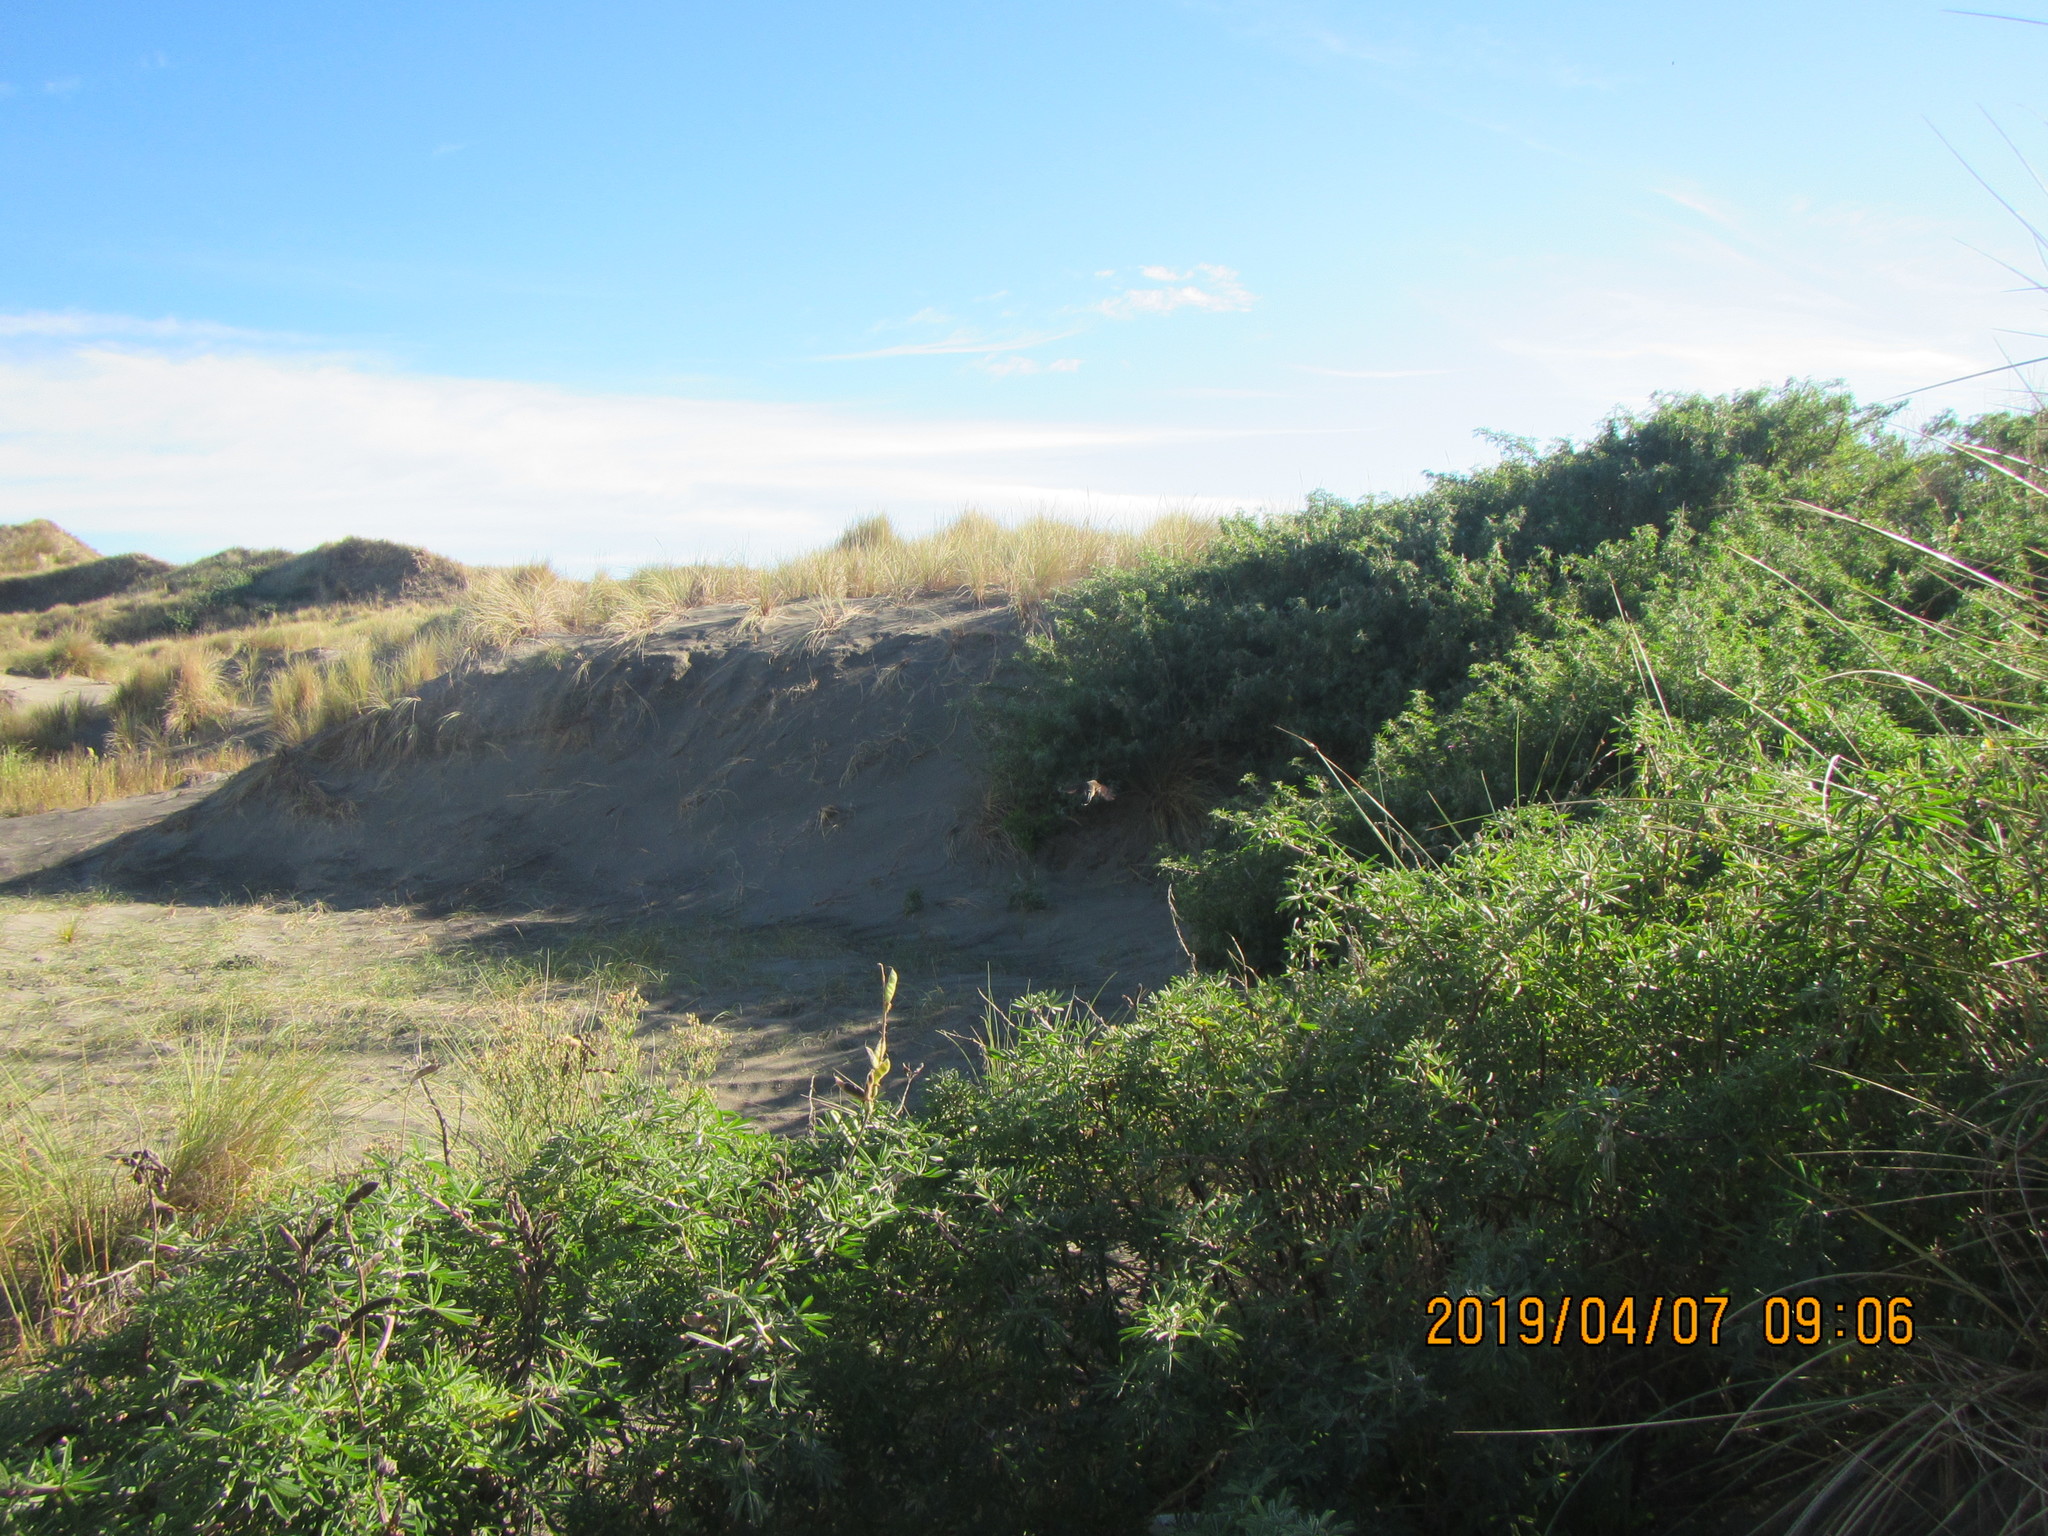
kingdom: Animalia
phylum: Chordata
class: Aves
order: Passeriformes
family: Rhipiduridae
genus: Rhipidura
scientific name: Rhipidura fuliginosa
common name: New zealand fantail
